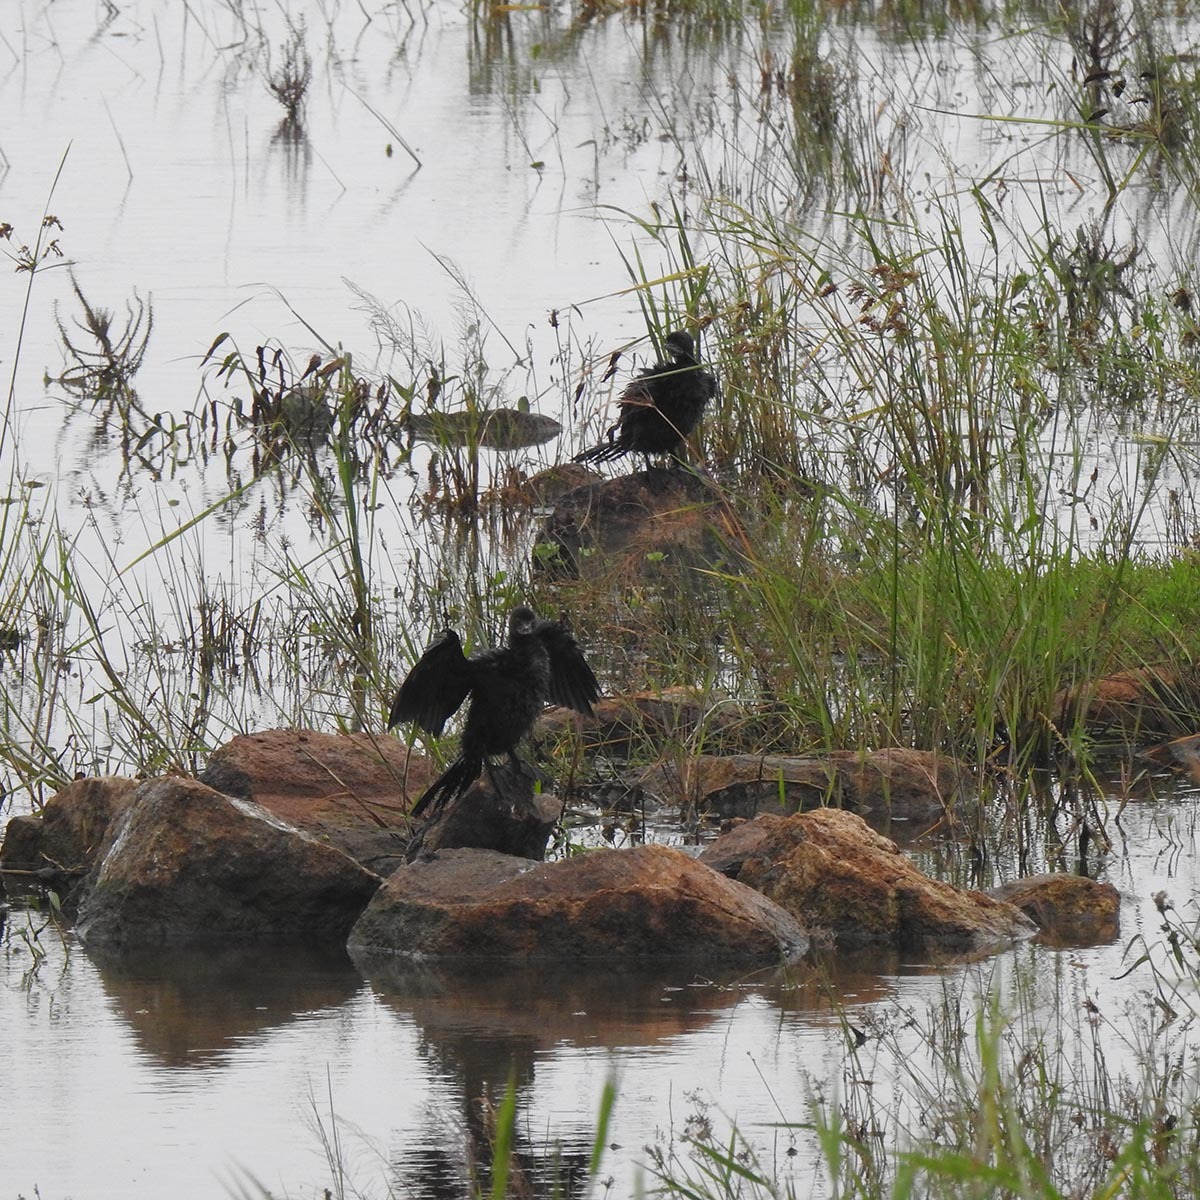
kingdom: Animalia
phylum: Chordata
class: Aves
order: Suliformes
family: Phalacrocoracidae
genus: Microcarbo
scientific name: Microcarbo niger
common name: Little cormorant
